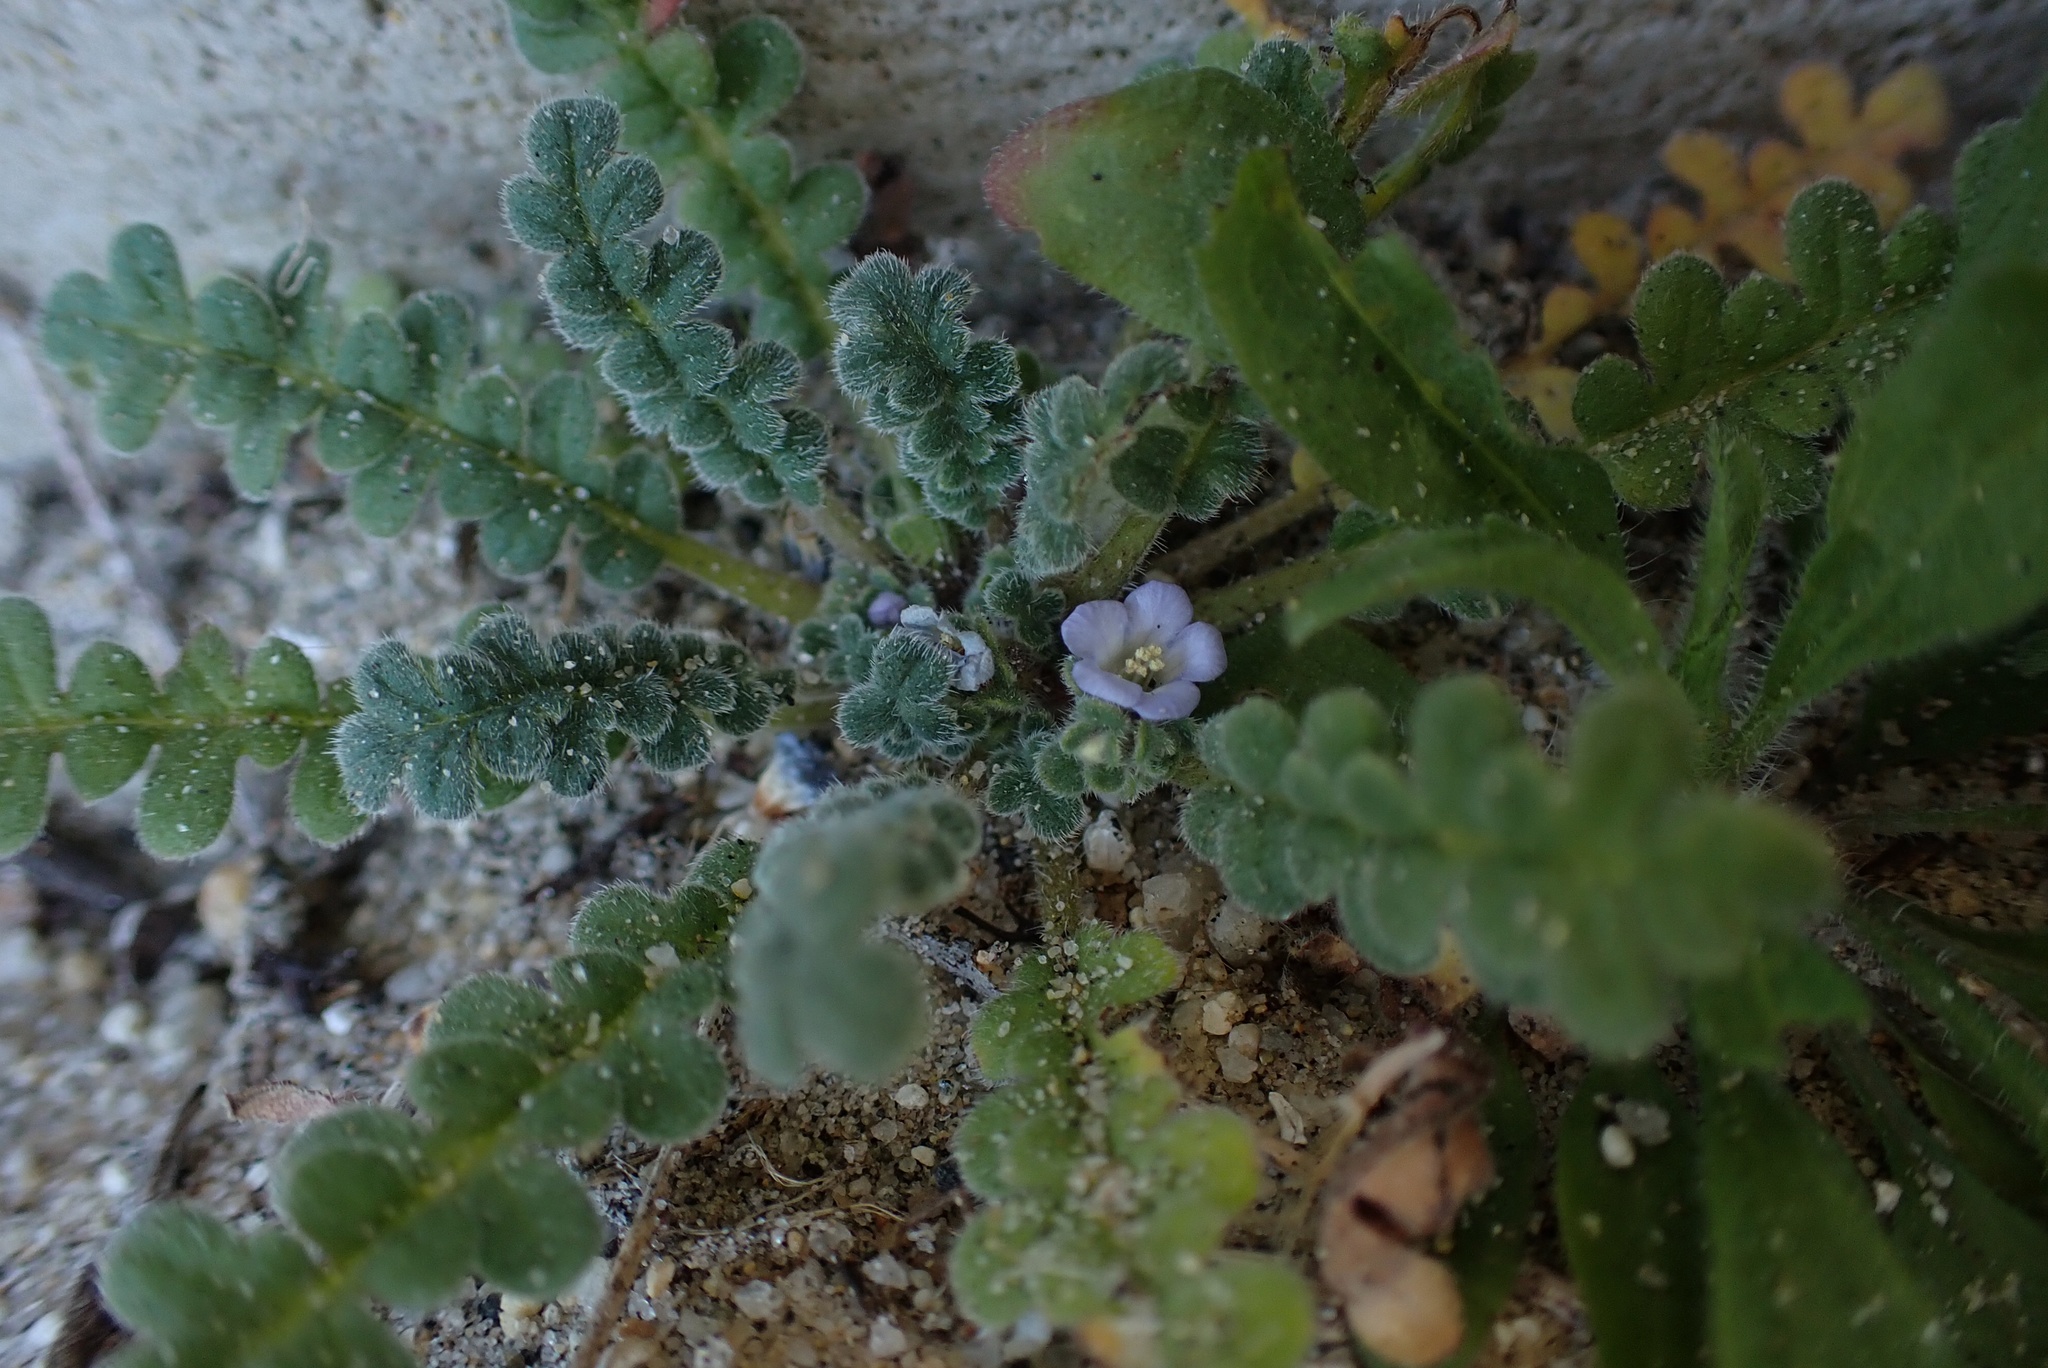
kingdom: Plantae
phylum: Tracheophyta
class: Magnoliopsida
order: Boraginales
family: Hydrophyllaceae
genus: Phacelia
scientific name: Phacelia stellaris
